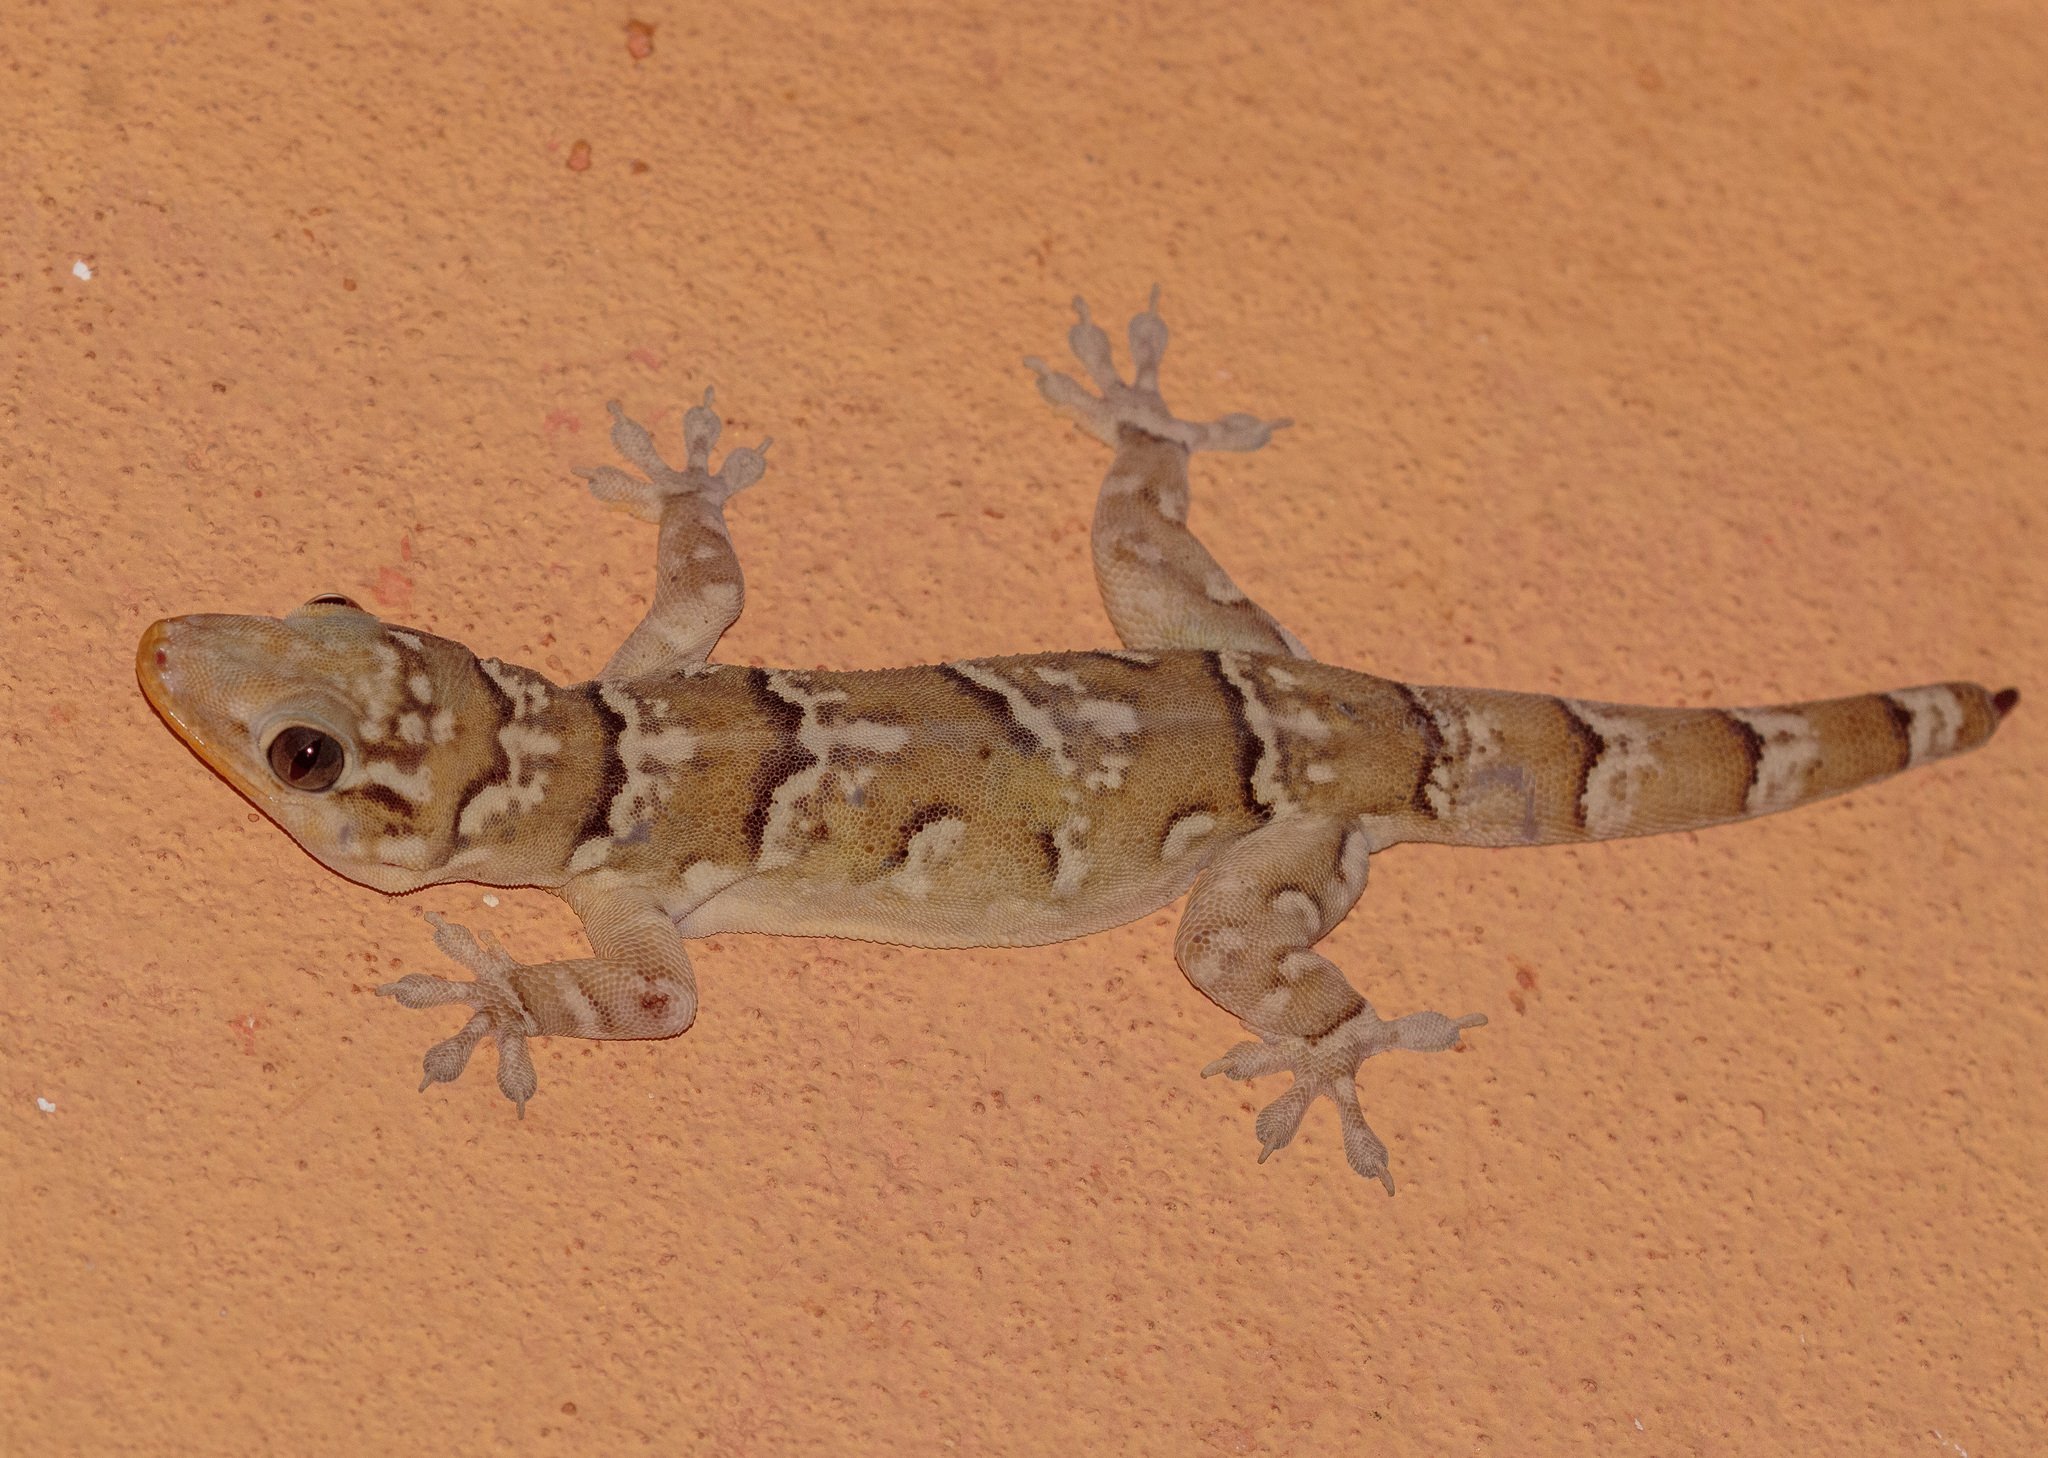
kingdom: Animalia
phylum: Chordata
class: Squamata
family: Phyllodactylidae
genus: Phyllopezus
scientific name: Phyllopezus periosus
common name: Peraiba gecko
